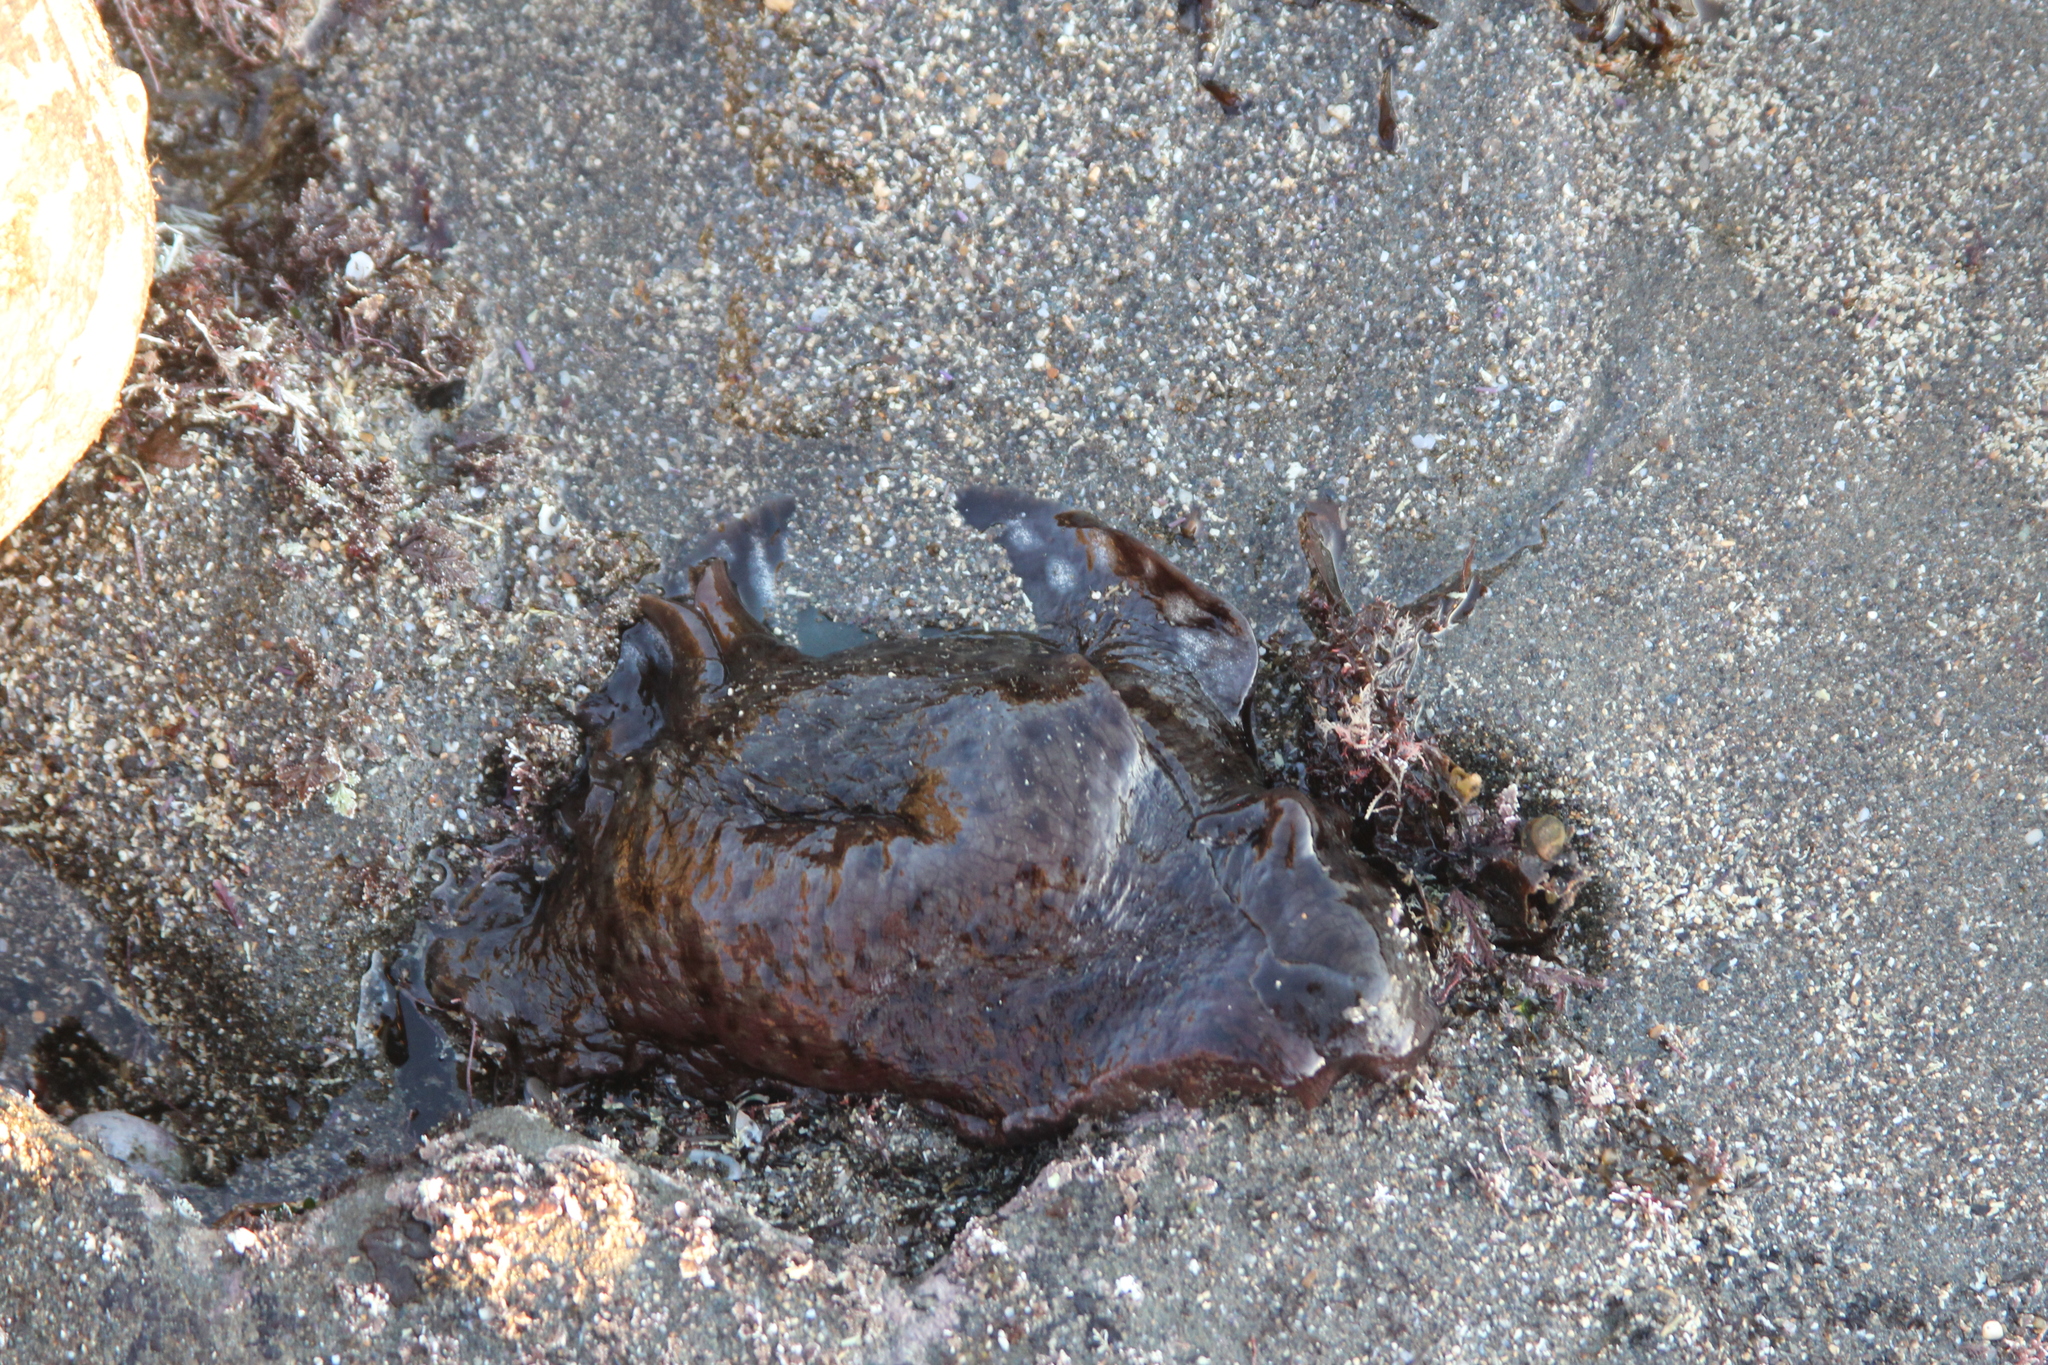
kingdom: Animalia
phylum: Mollusca
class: Gastropoda
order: Aplysiida
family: Aplysiidae
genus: Aplysia
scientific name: Aplysia californica
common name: California seahare
